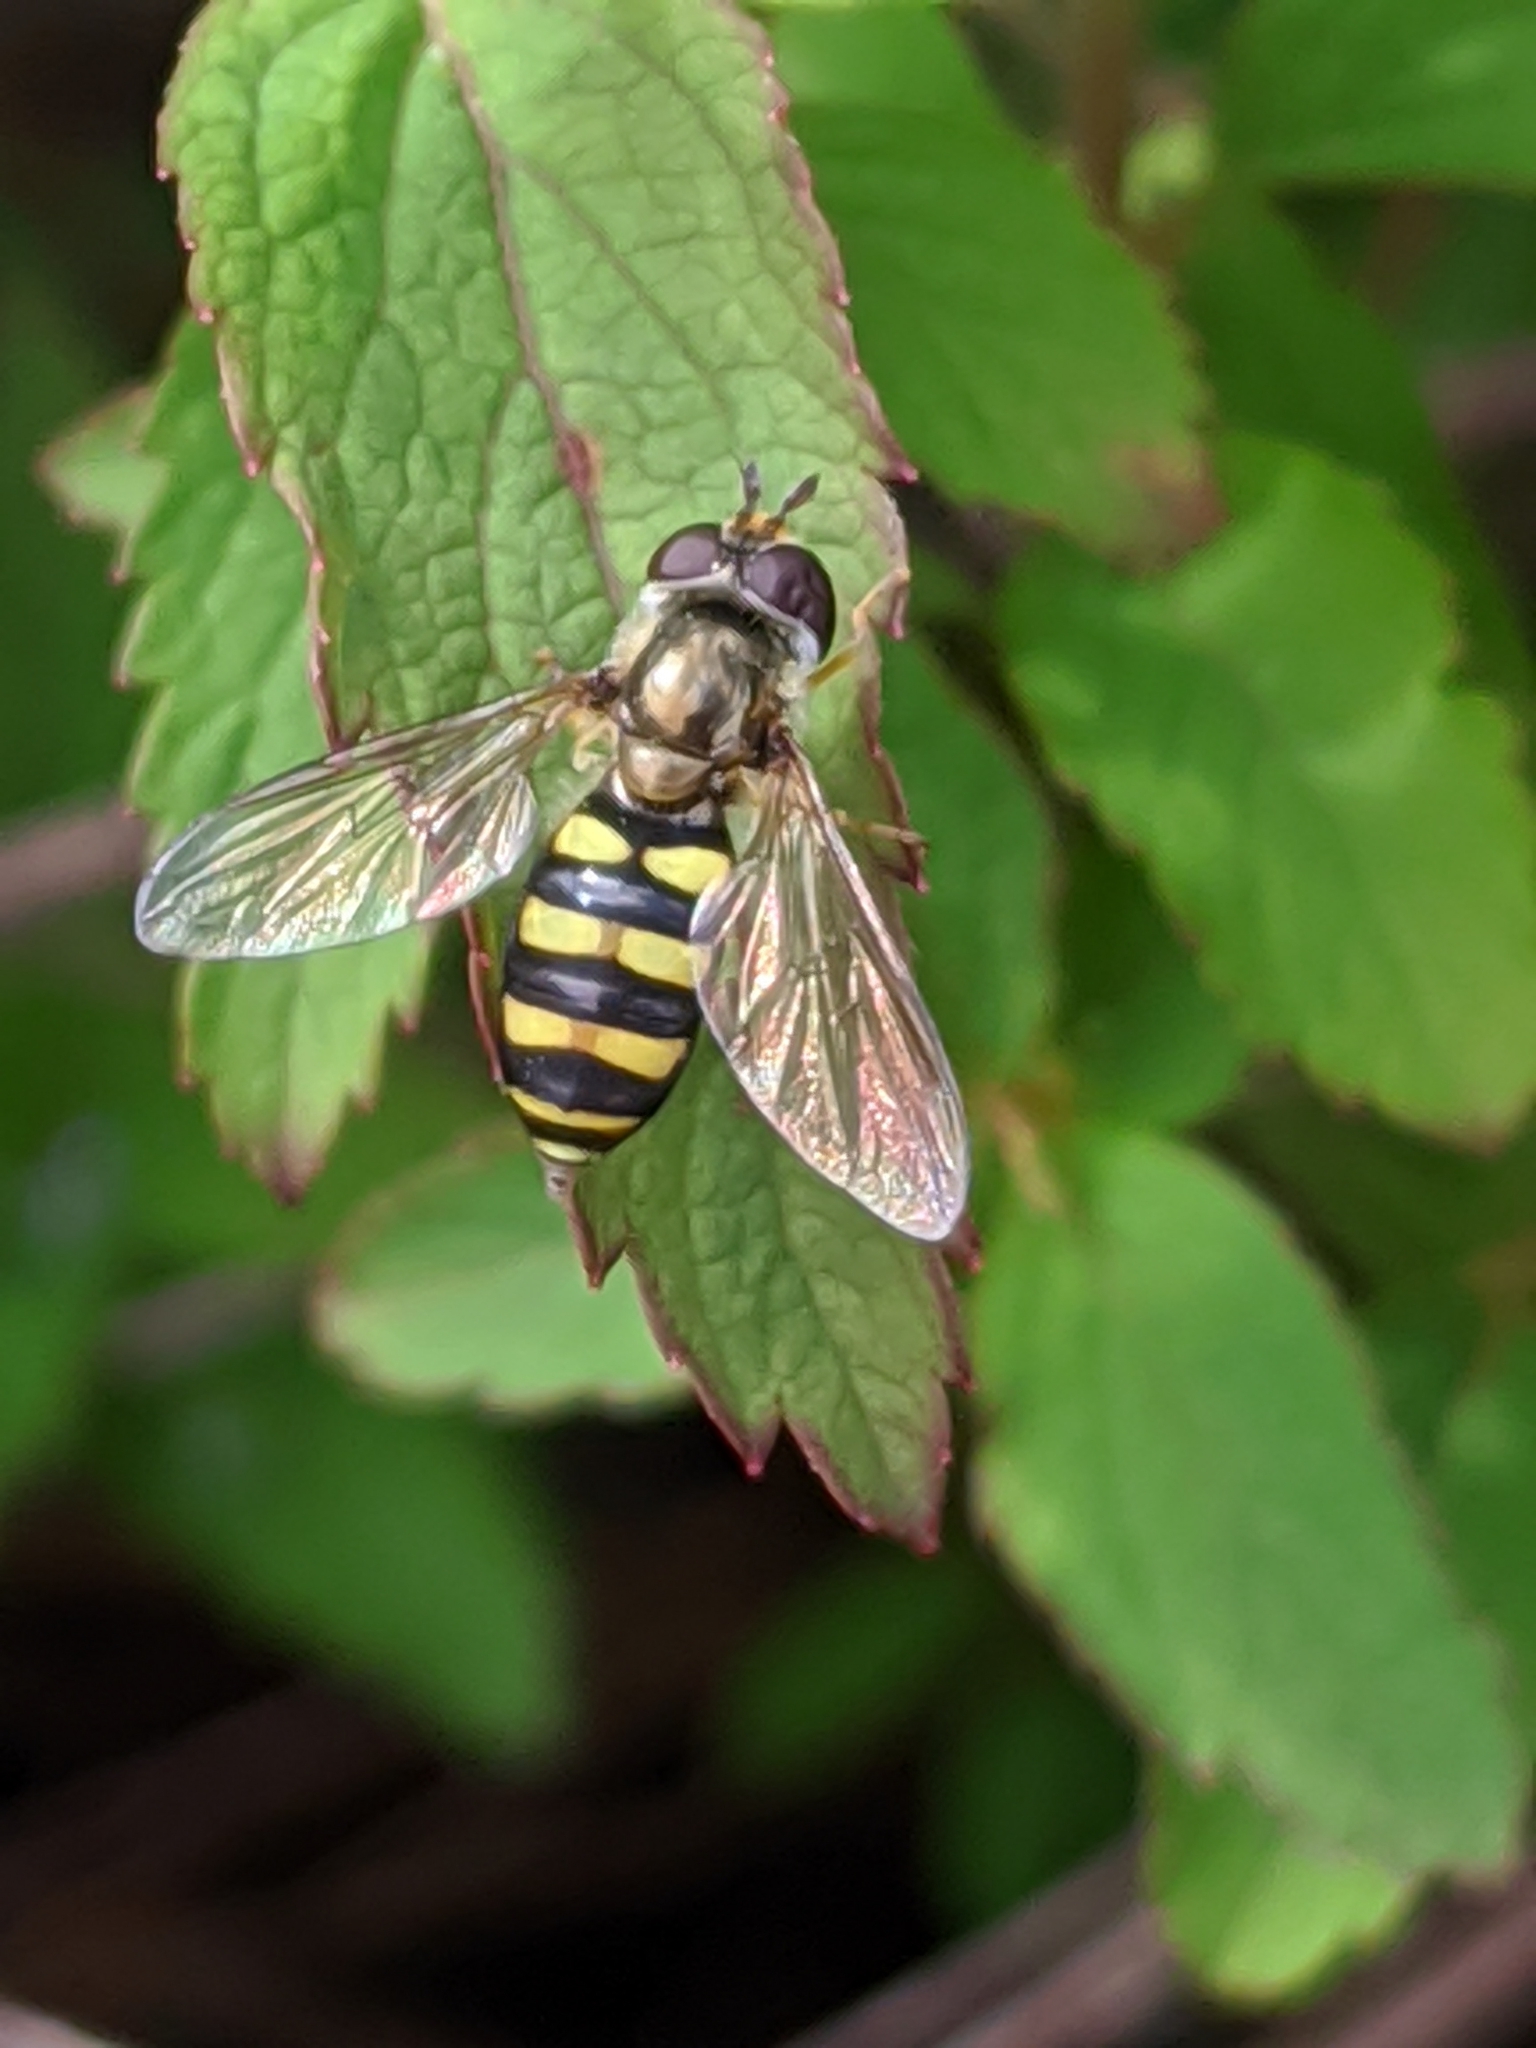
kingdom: Animalia
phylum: Arthropoda
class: Insecta
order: Diptera
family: Syrphidae
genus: Eupeodes
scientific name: Eupeodes
